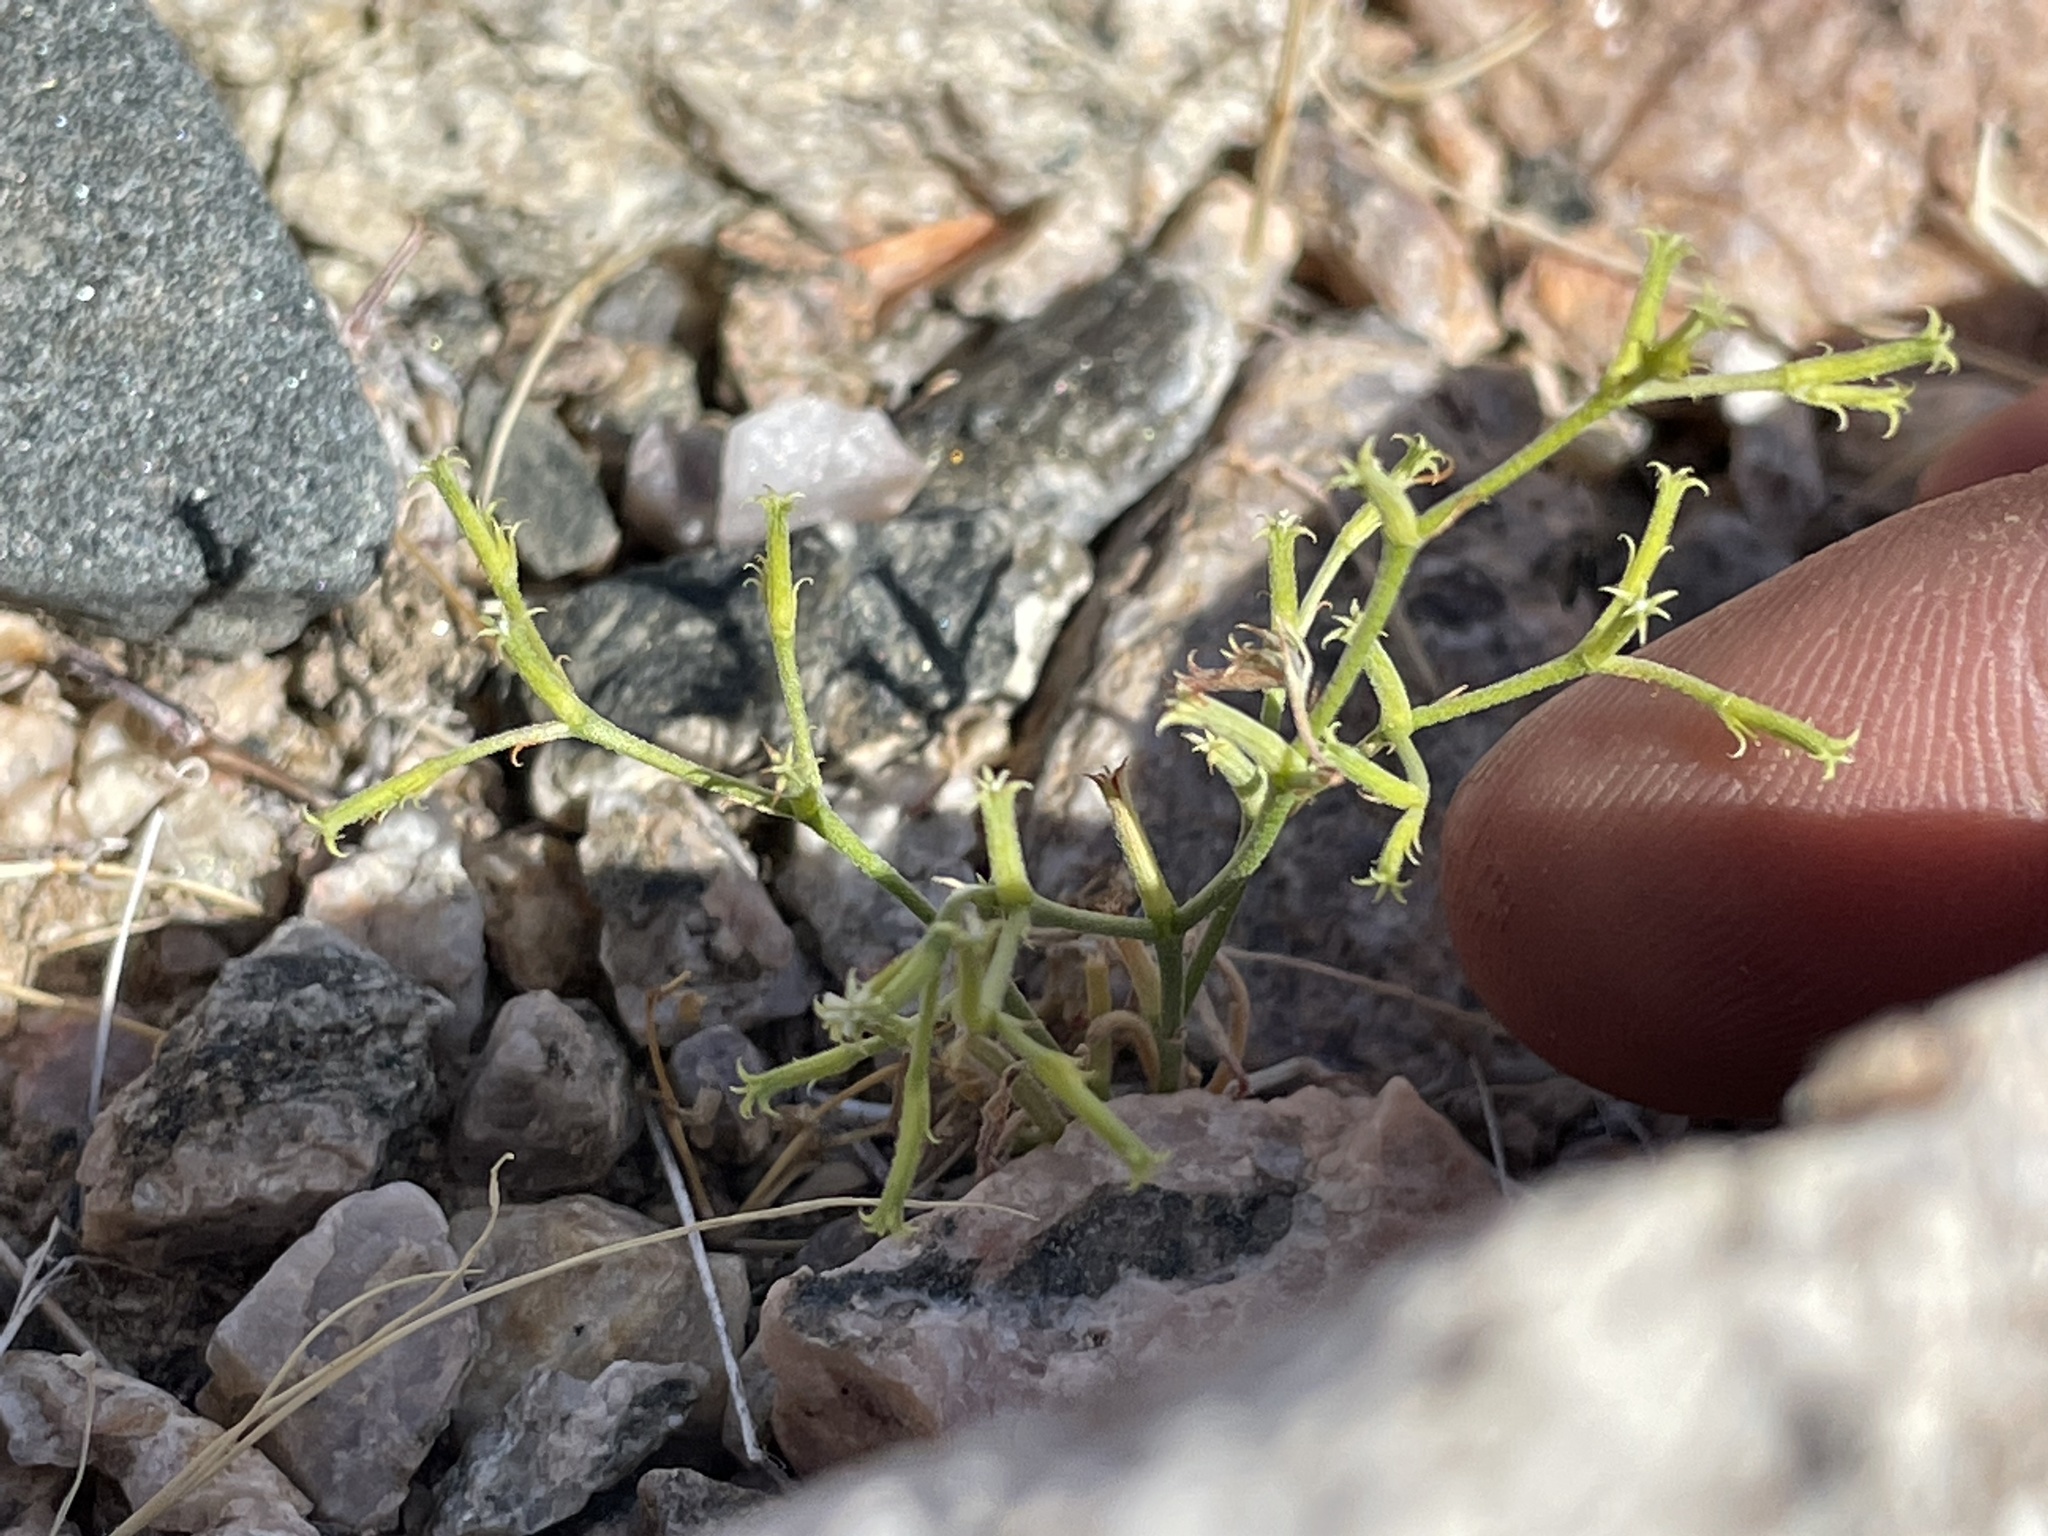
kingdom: Plantae
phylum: Tracheophyta
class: Magnoliopsida
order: Caryophyllales
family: Polygonaceae
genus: Chorizanthe
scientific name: Chorizanthe brevicornu
